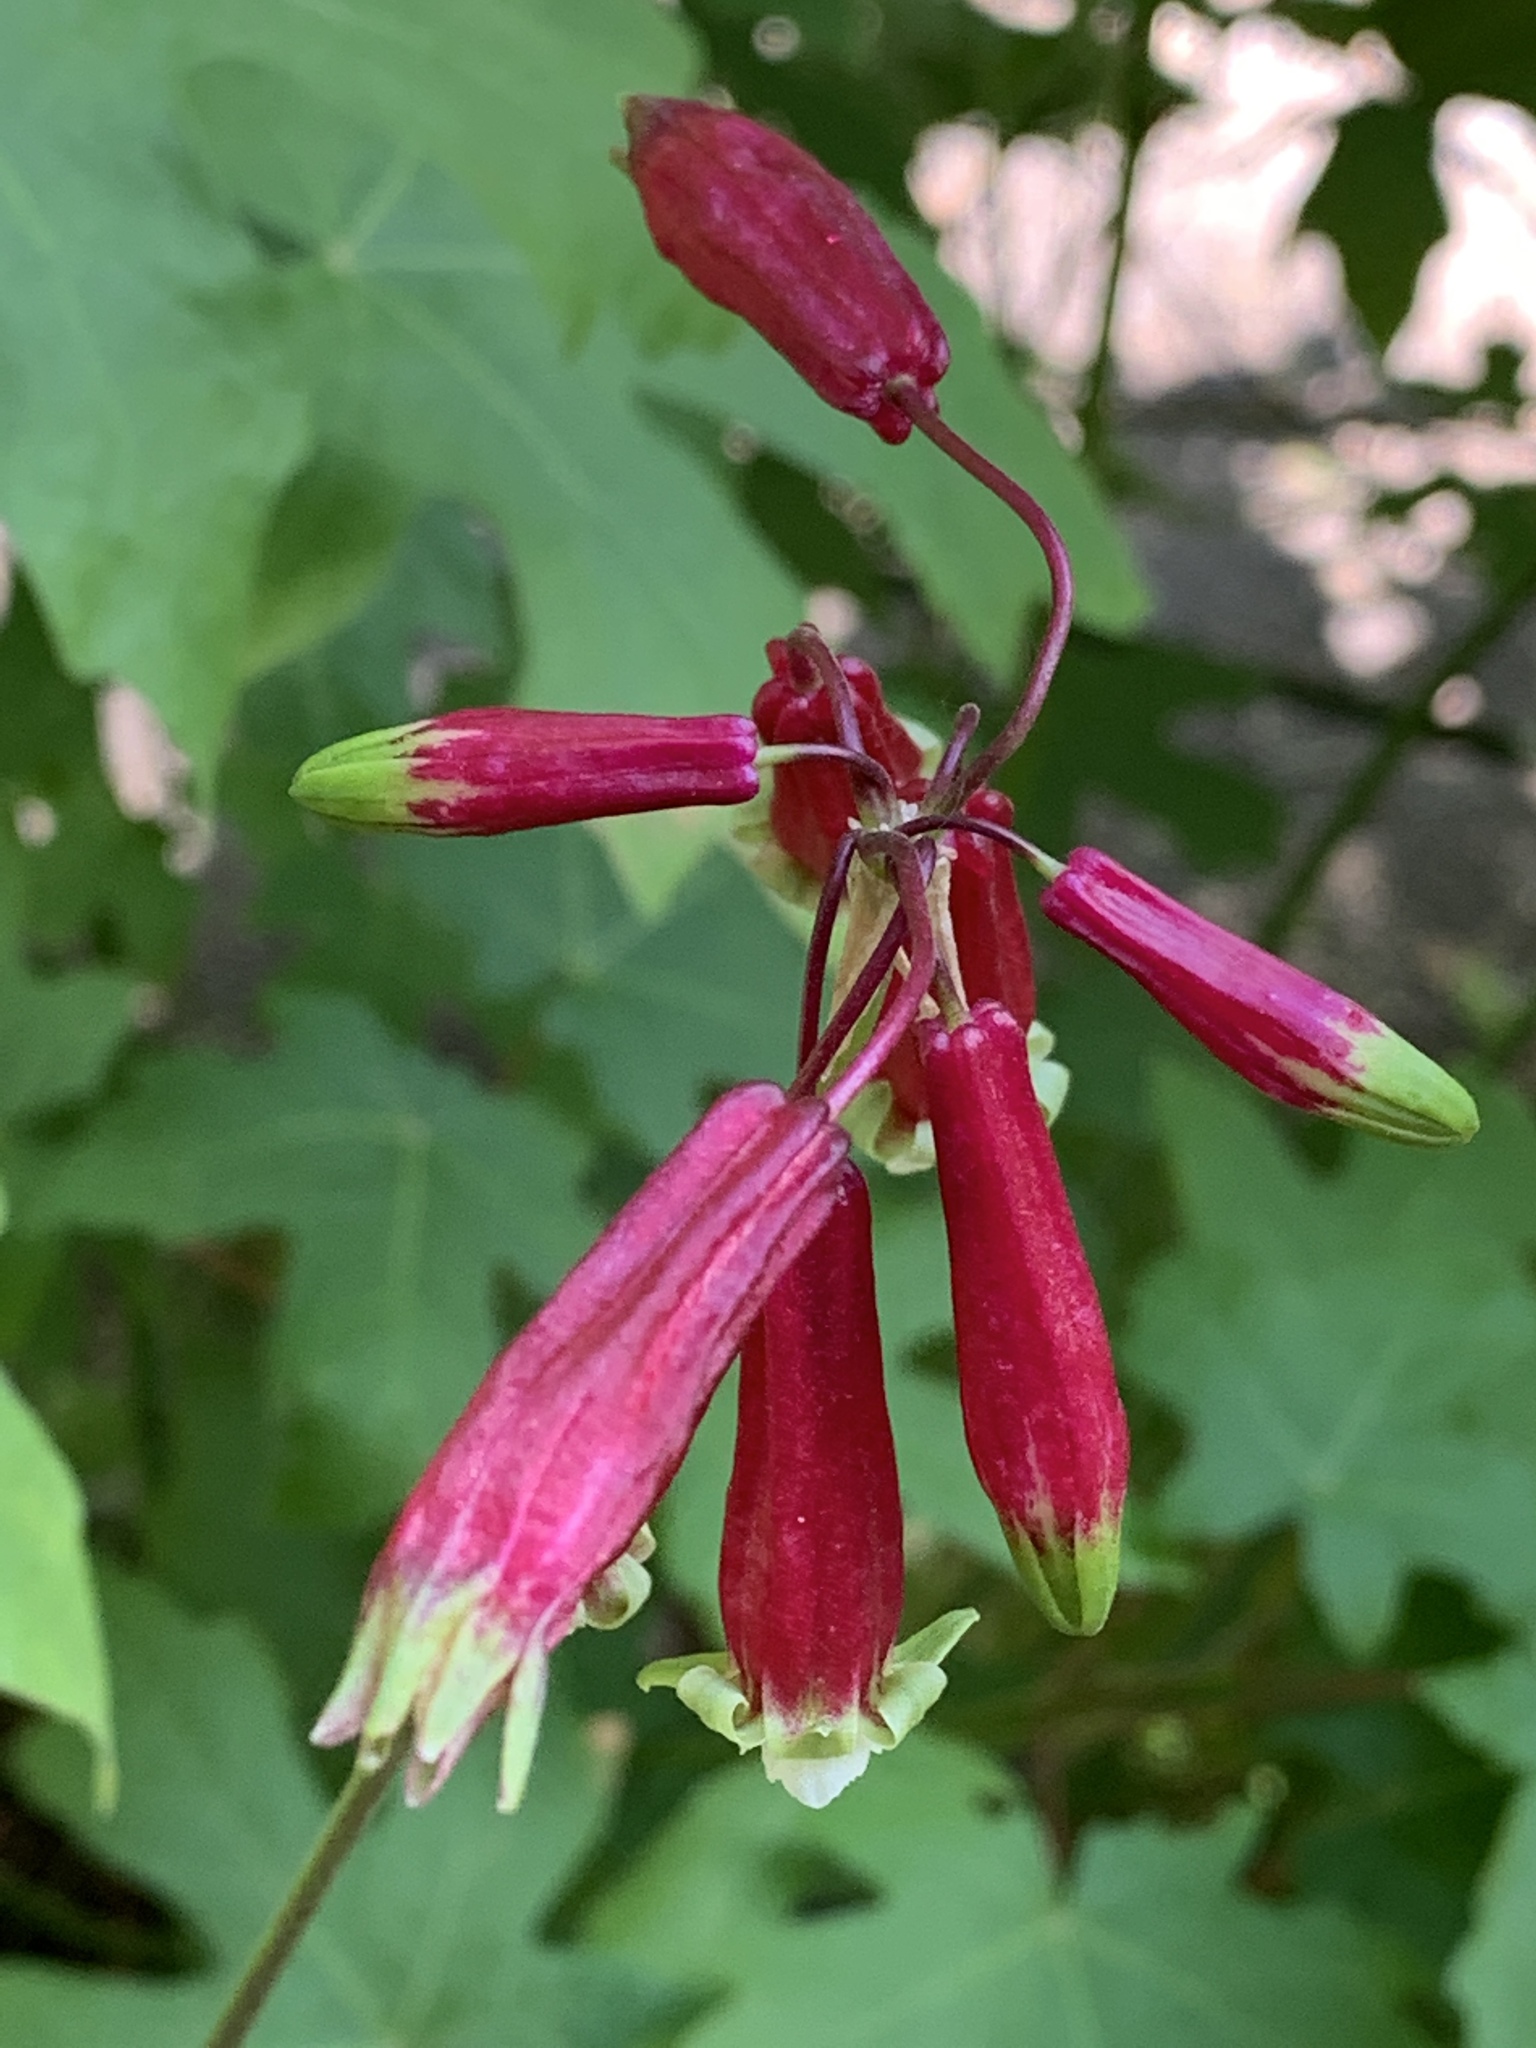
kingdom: Plantae
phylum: Tracheophyta
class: Liliopsida
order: Asparagales
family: Asparagaceae
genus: Dichelostemma
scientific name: Dichelostemma ida-maia
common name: Firecracker-flower
